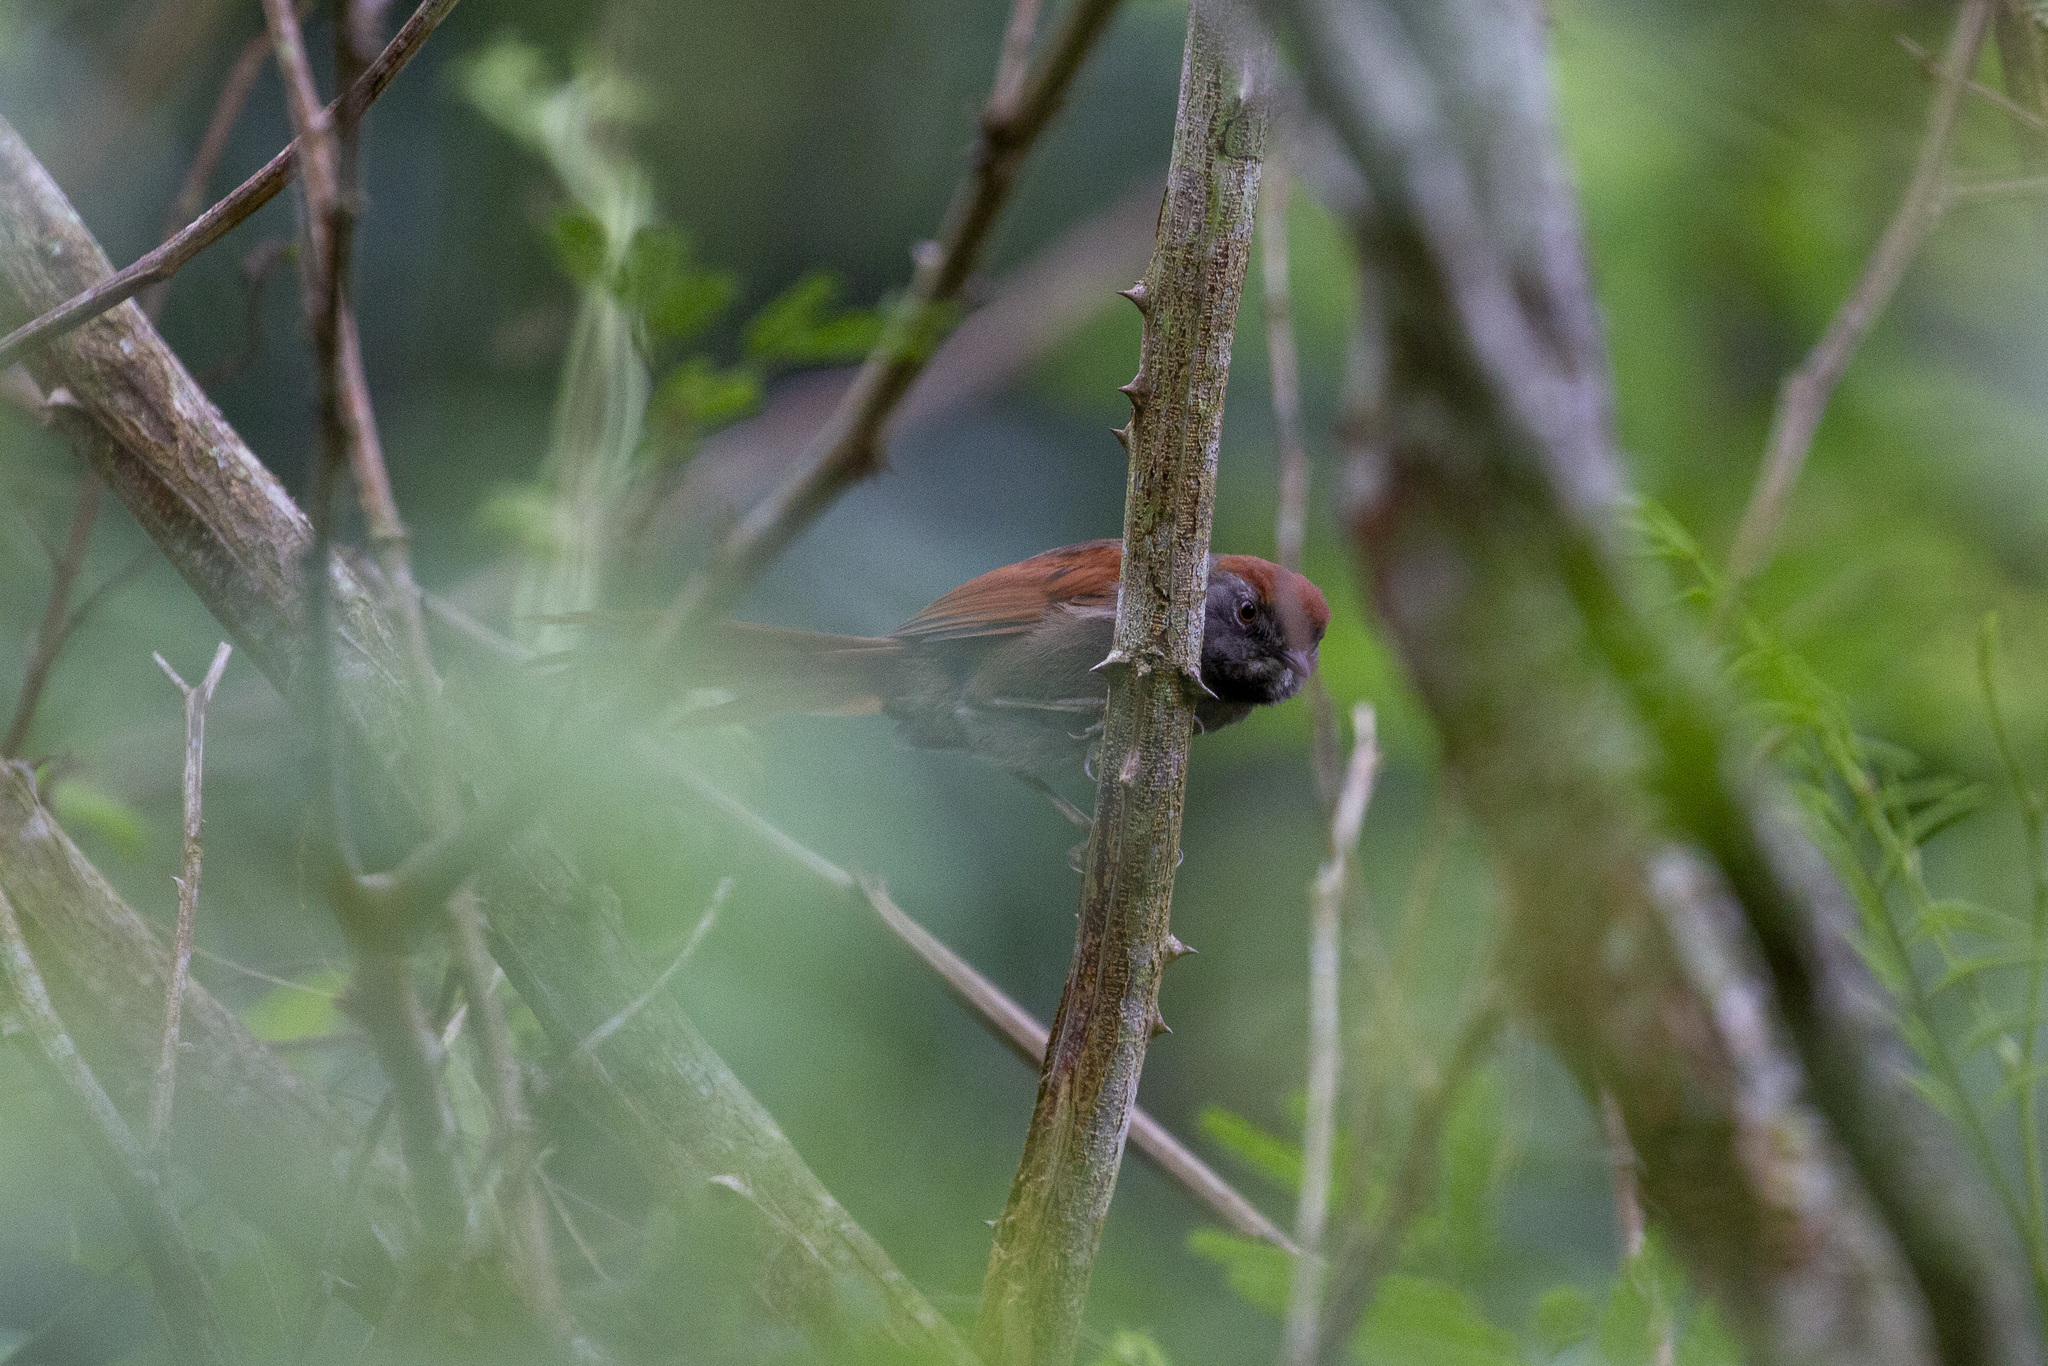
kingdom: Animalia
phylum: Chordata
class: Aves
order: Passeriformes
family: Furnariidae
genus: Synallaxis
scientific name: Synallaxis frontalis
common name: Sooty-fronted spinetail
